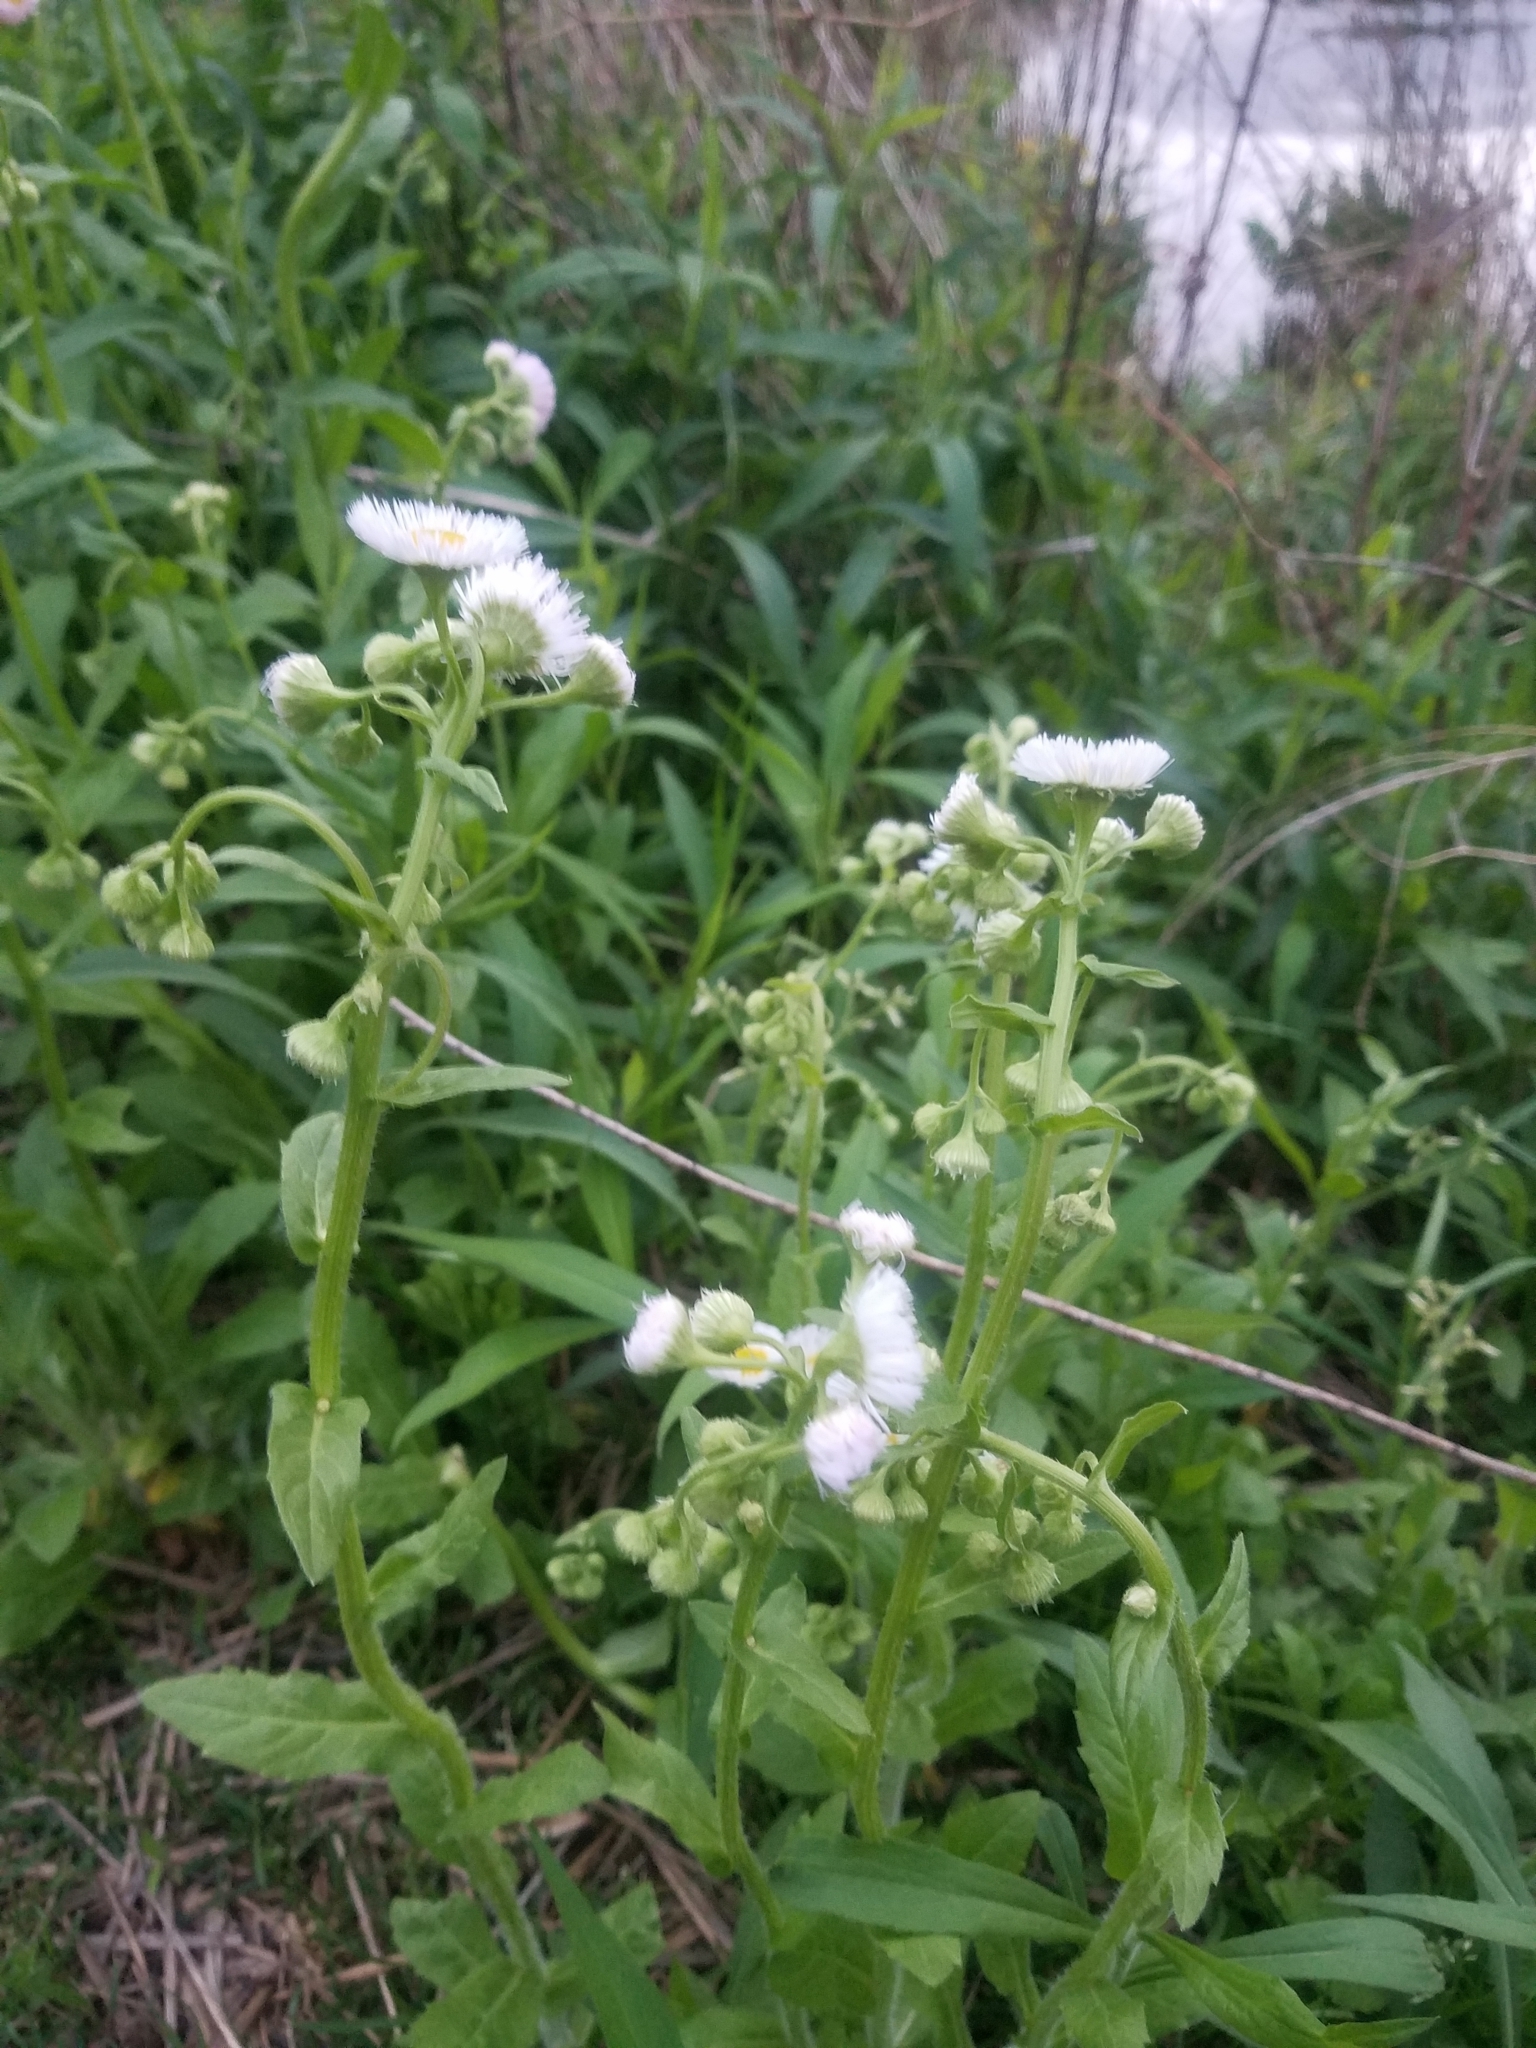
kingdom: Plantae
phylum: Tracheophyta
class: Magnoliopsida
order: Asterales
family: Asteraceae
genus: Erigeron
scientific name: Erigeron philadelphicus
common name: Robin's-plantain
